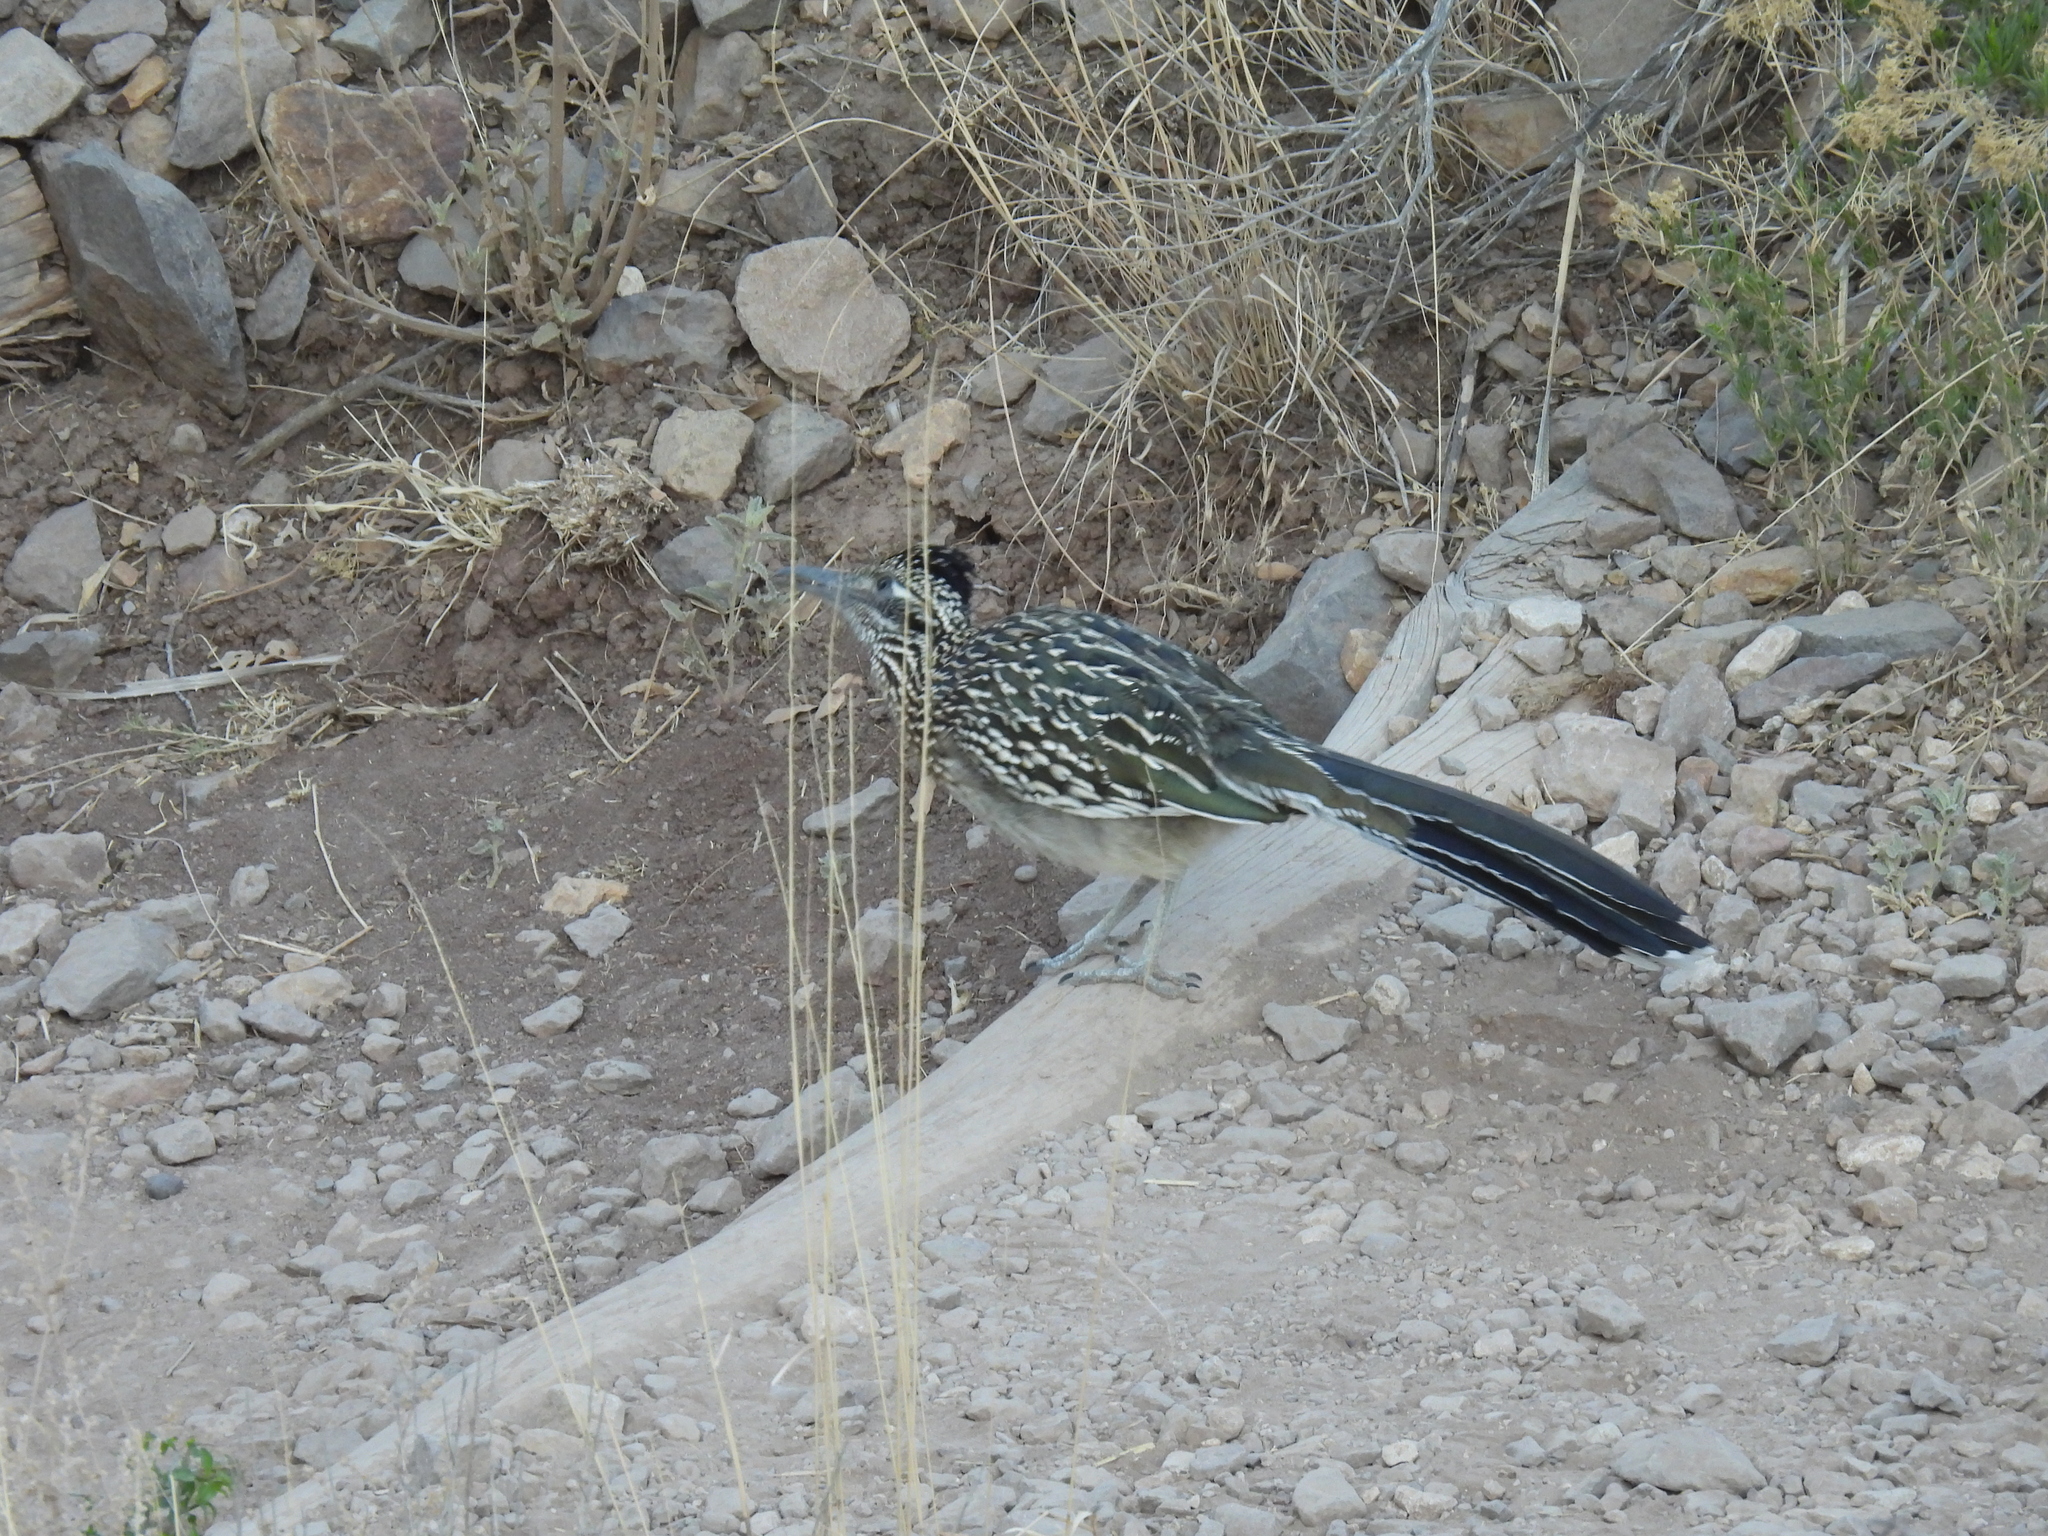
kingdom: Animalia
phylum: Chordata
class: Aves
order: Cuculiformes
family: Cuculidae
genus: Geococcyx
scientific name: Geococcyx californianus
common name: Greater roadrunner
